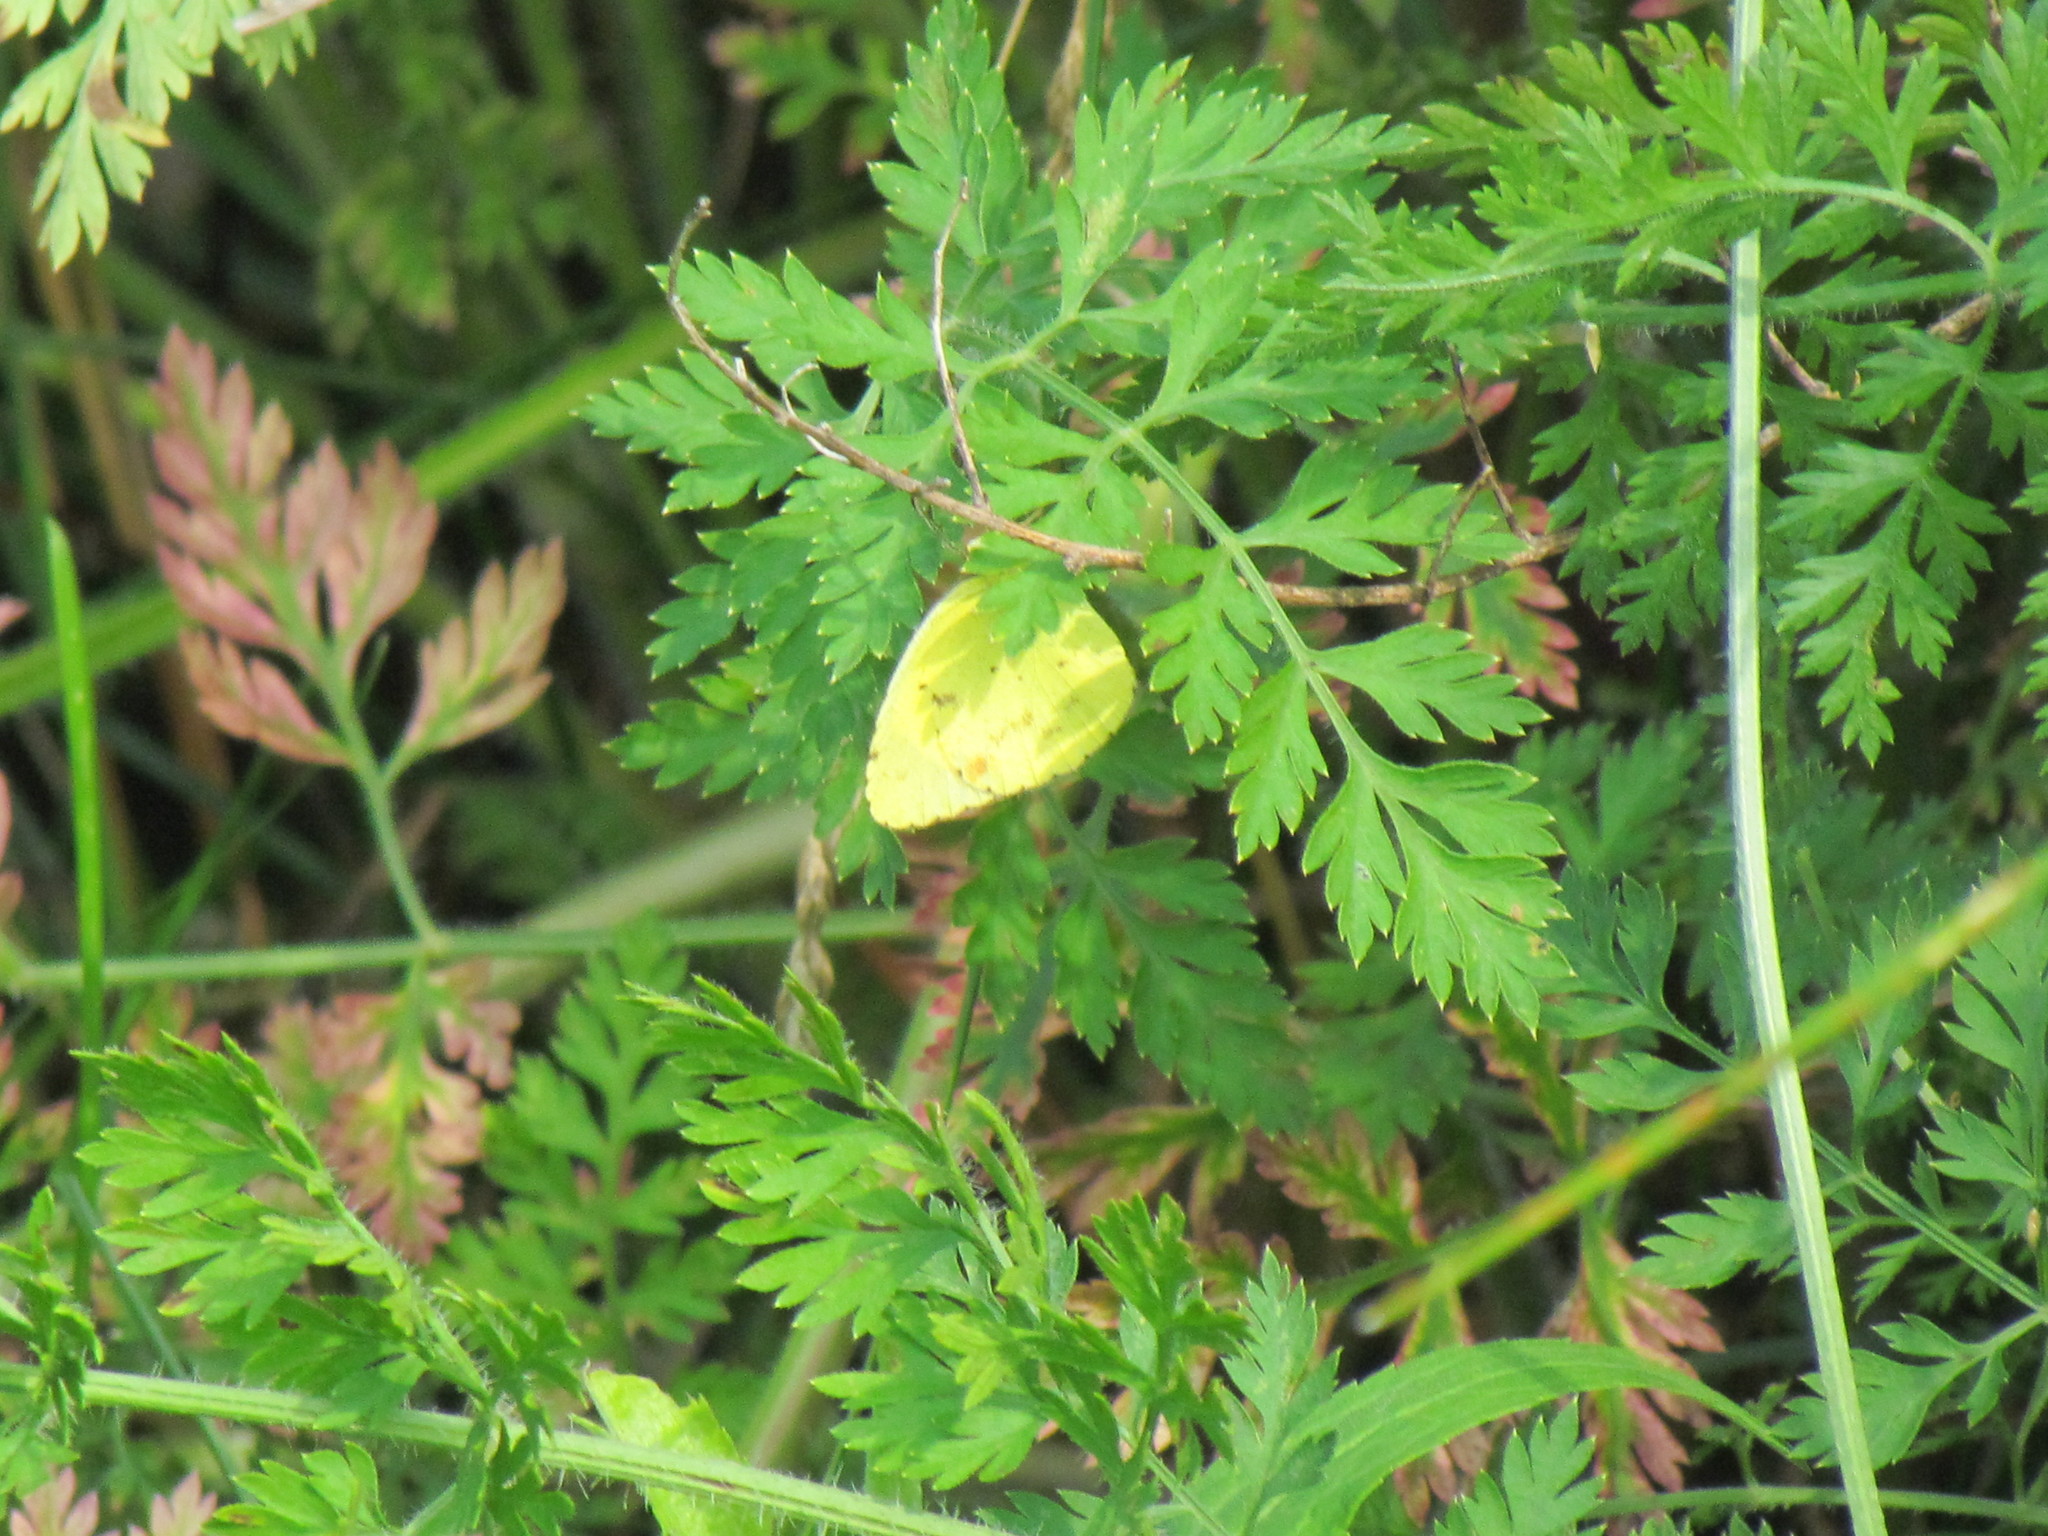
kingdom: Animalia
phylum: Arthropoda
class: Insecta
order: Lepidoptera
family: Pieridae
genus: Pyrisitia
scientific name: Pyrisitia lisa
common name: Little yellow
